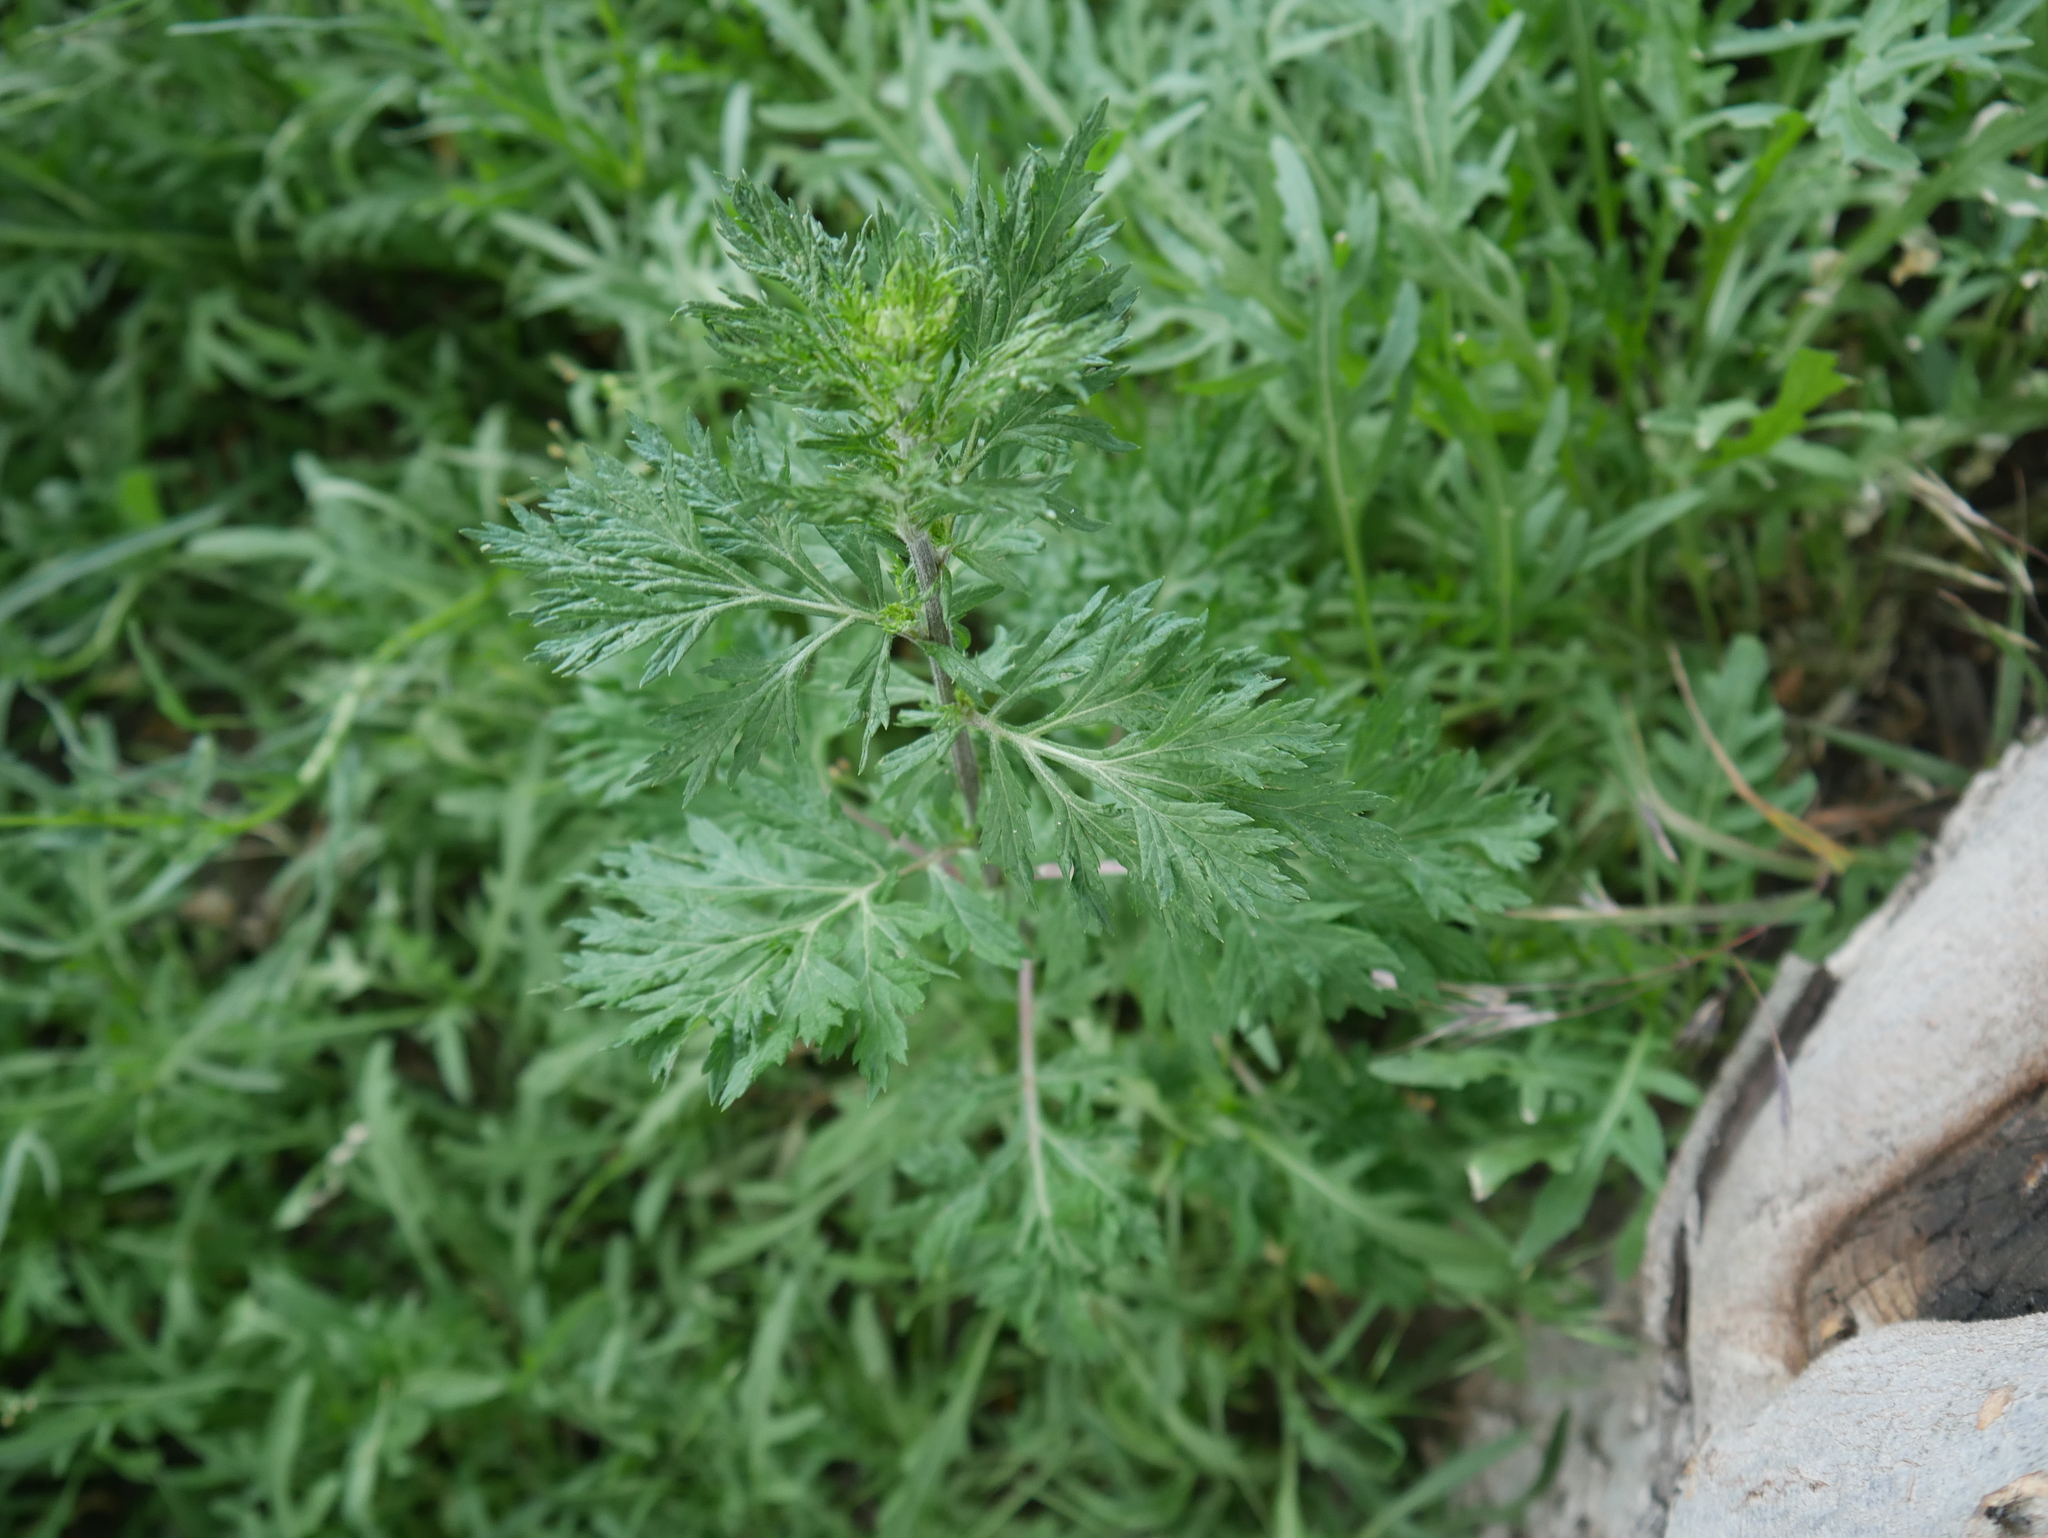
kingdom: Plantae
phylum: Tracheophyta
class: Magnoliopsida
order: Asterales
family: Asteraceae
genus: Artemisia
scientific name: Artemisia vulgaris
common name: Mugwort
